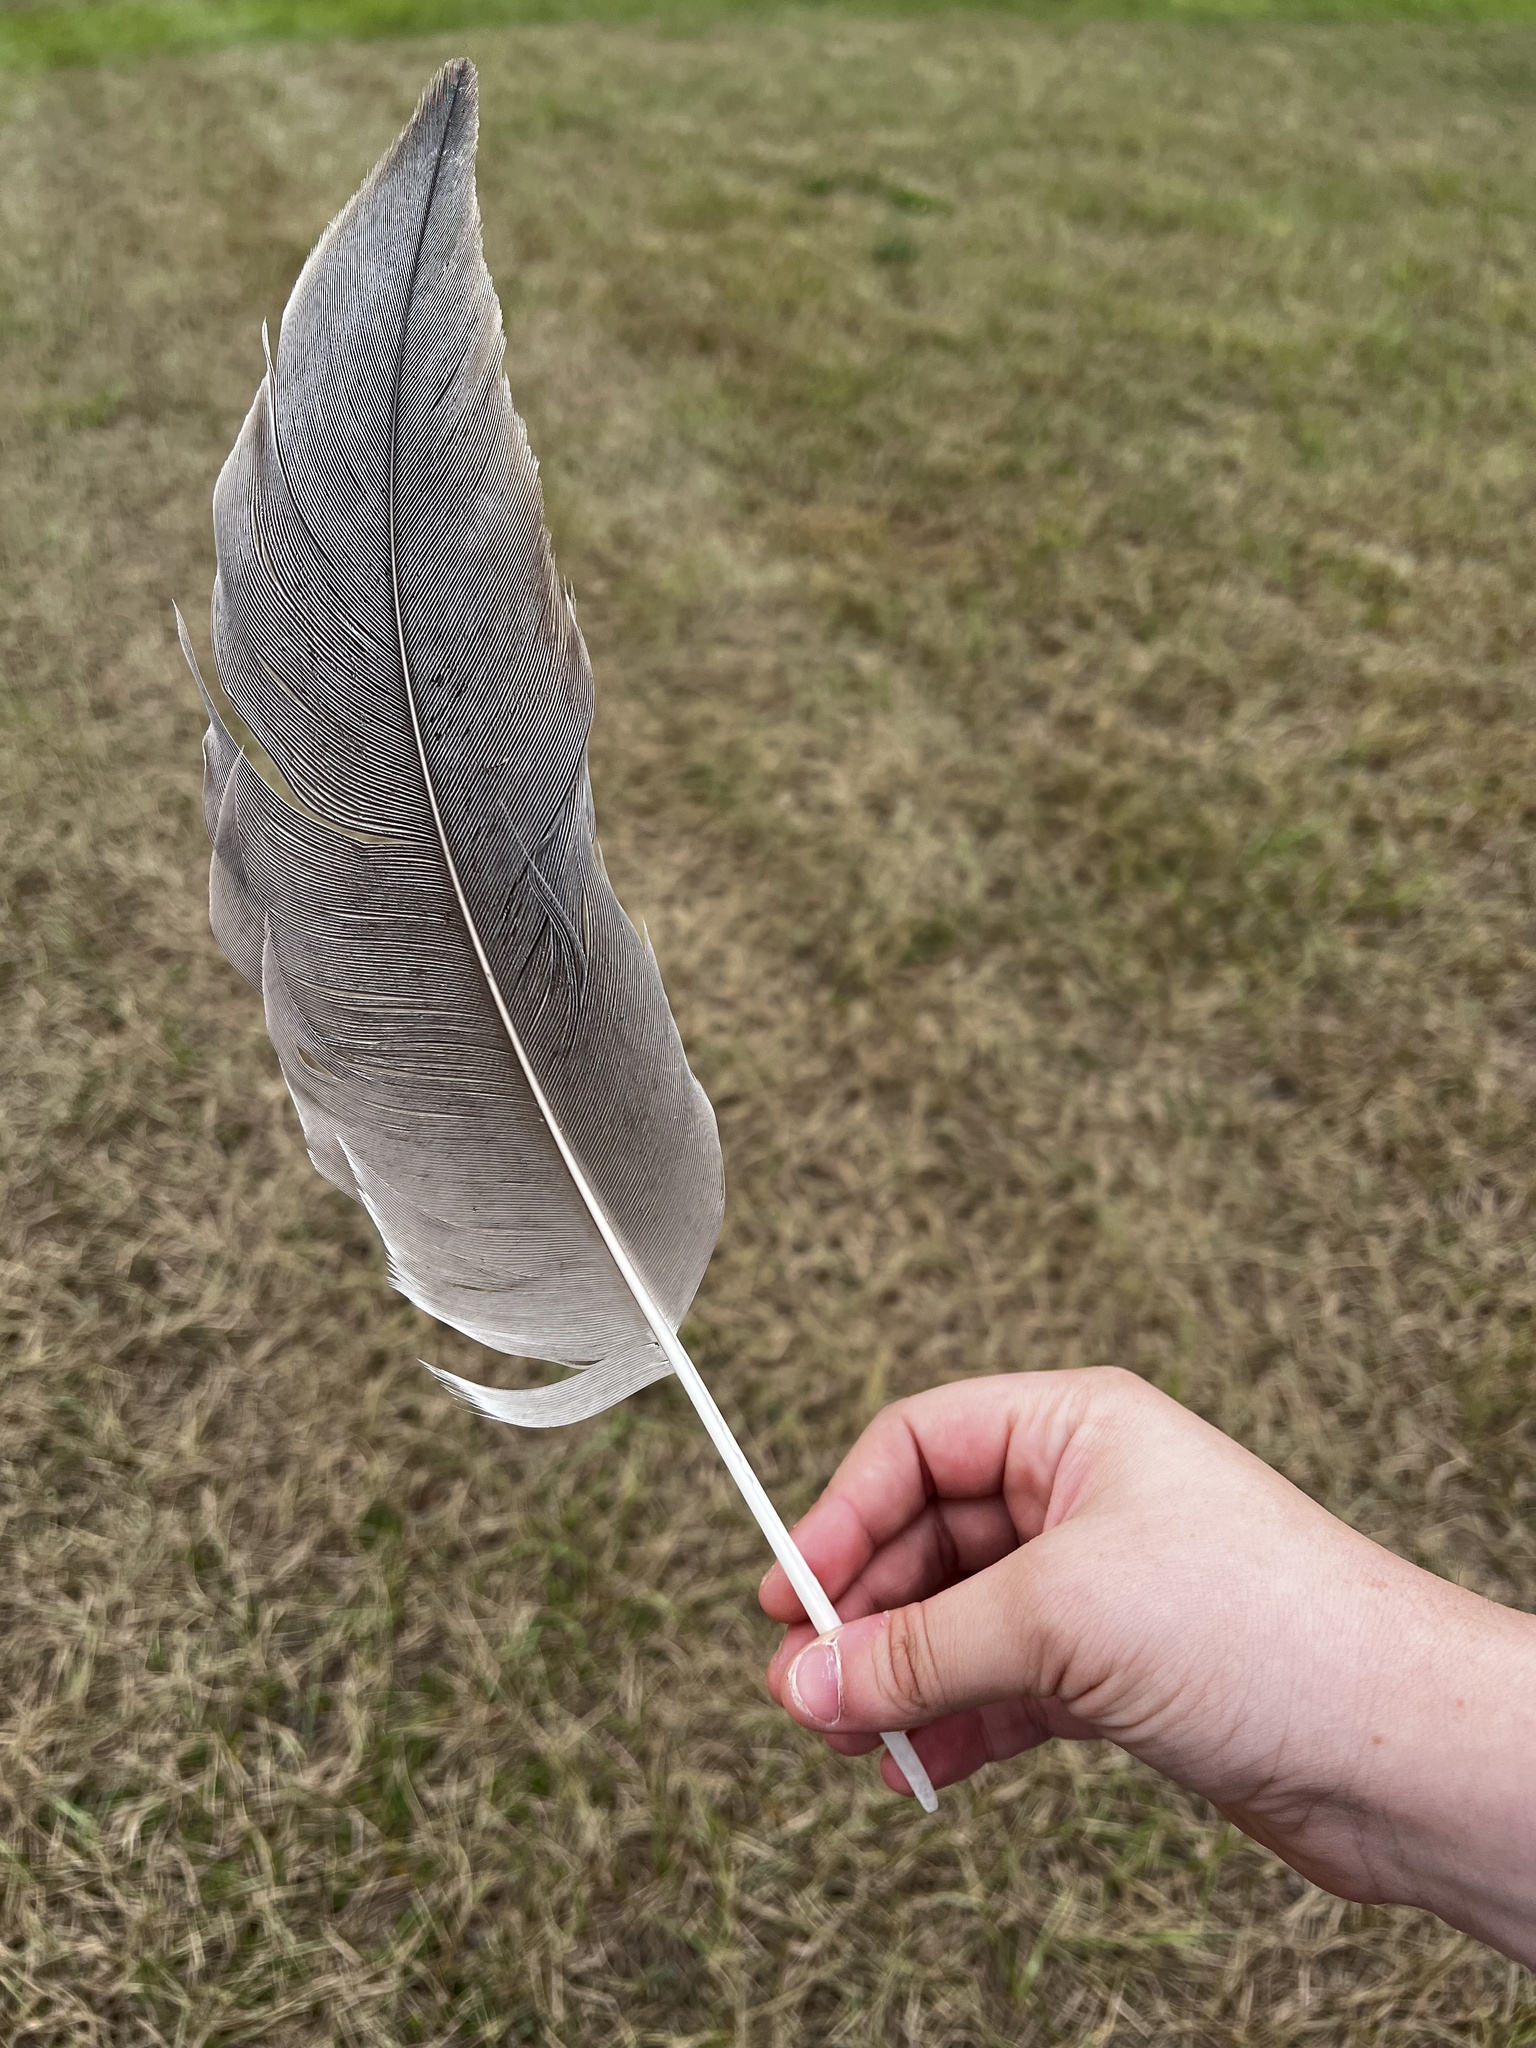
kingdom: Animalia
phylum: Chordata
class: Aves
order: Gruiformes
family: Gruidae
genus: Grus
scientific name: Grus canadensis
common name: Sandhill crane
